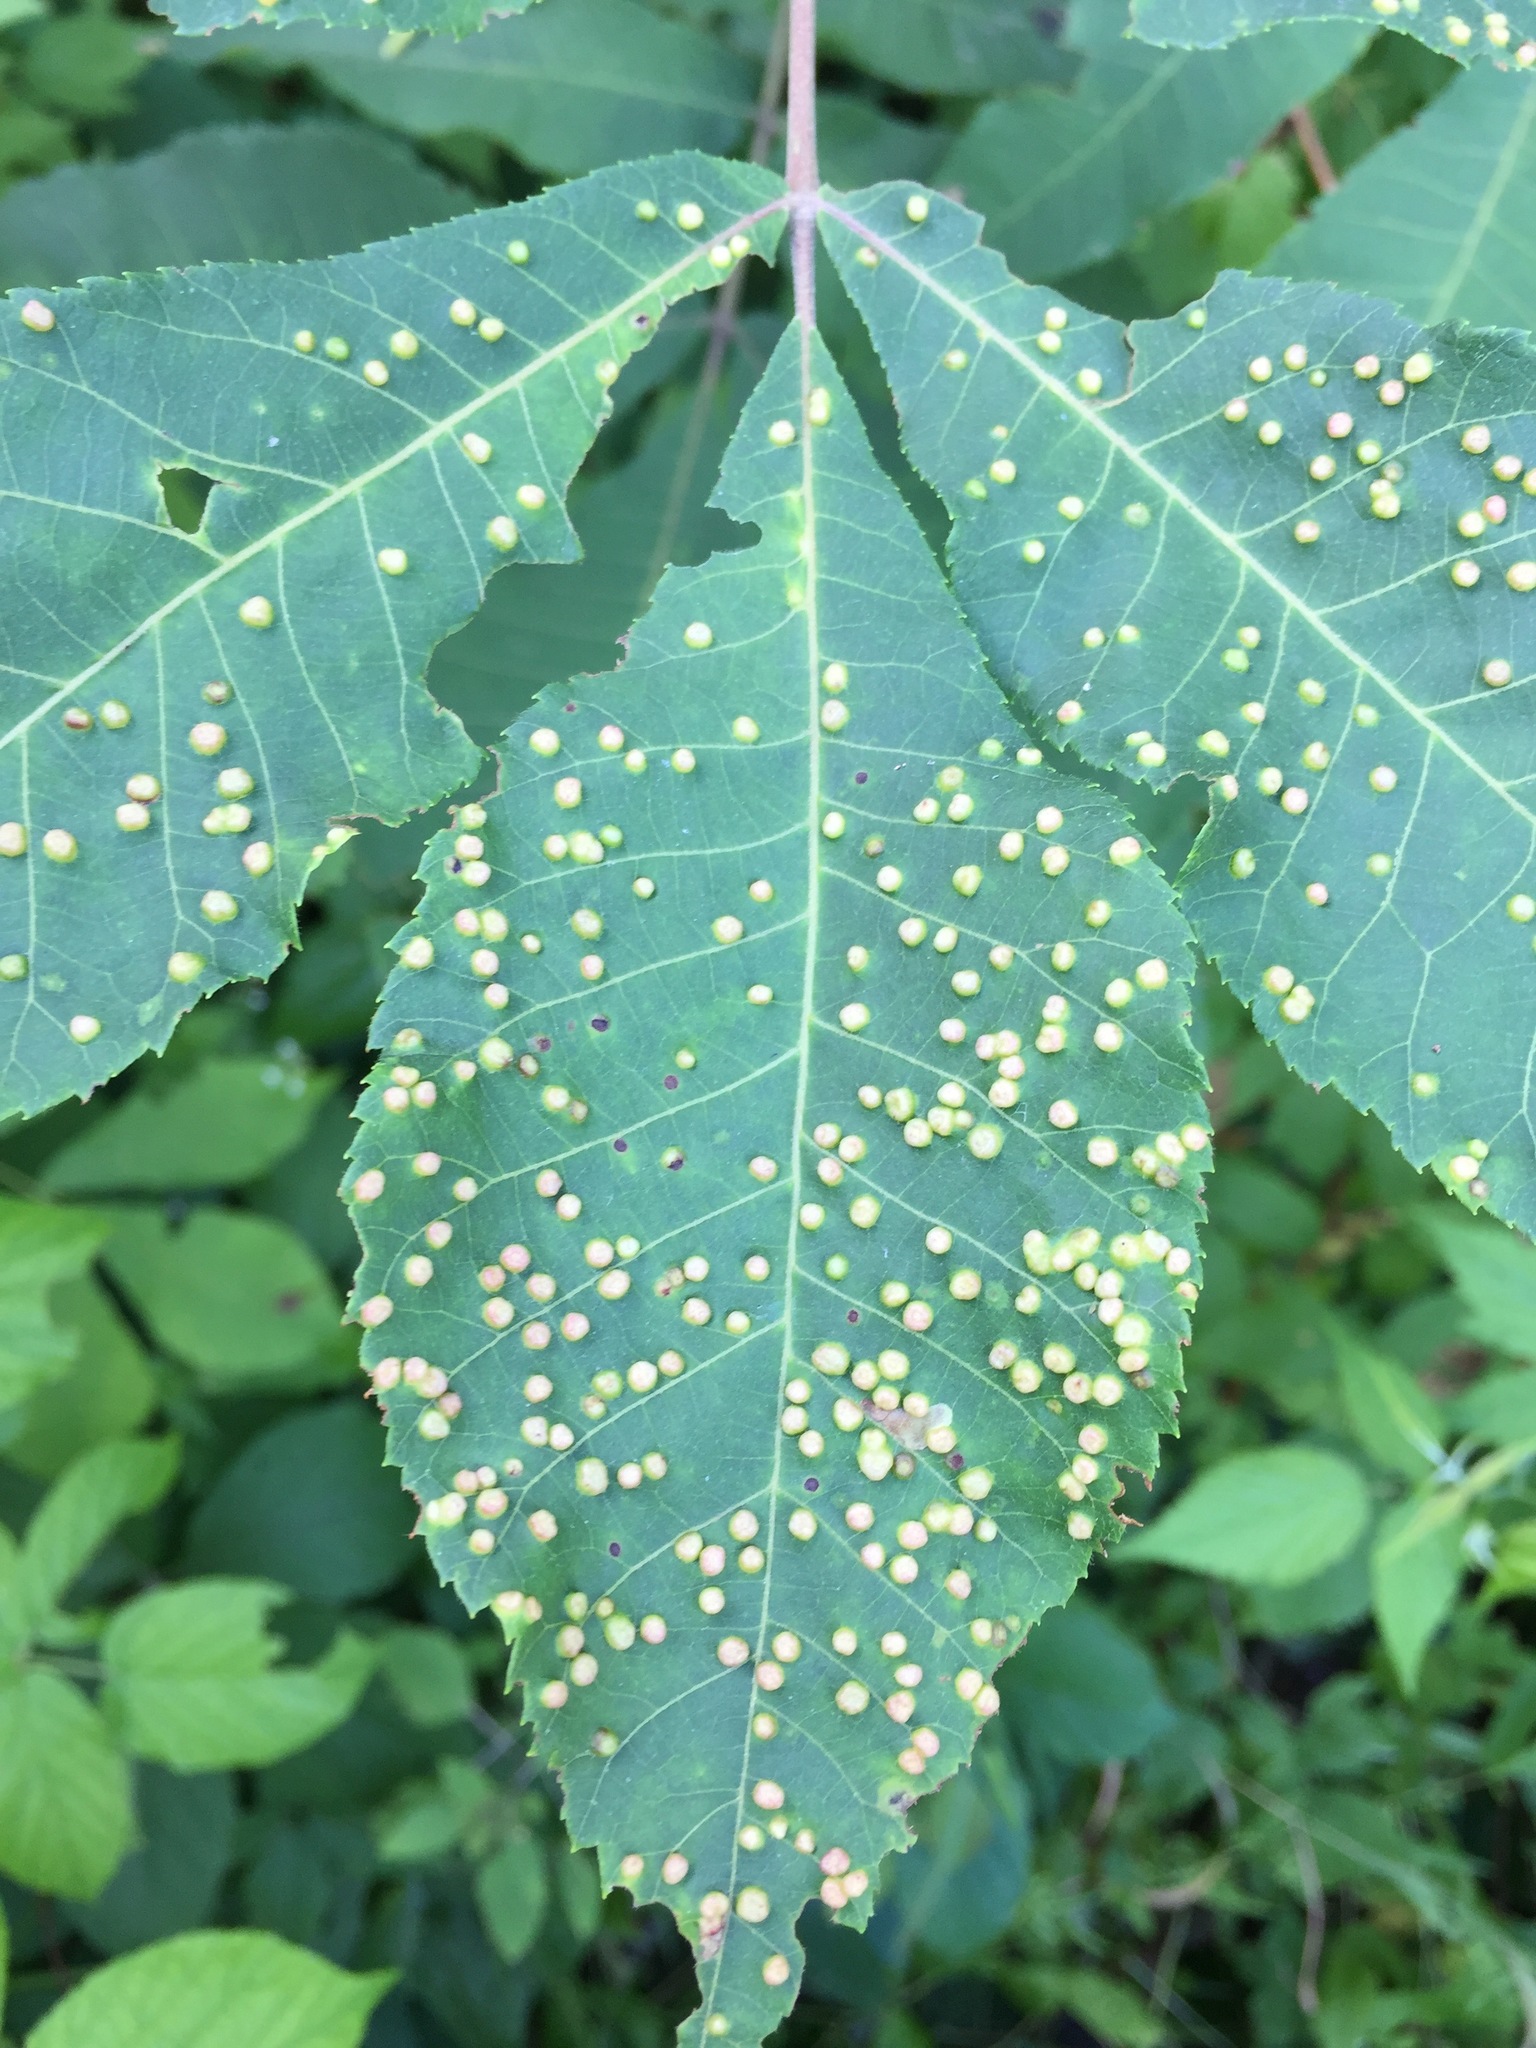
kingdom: Animalia
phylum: Arthropoda
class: Insecta
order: Hemiptera
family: Phylloxeridae
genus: Phylloxera
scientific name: Phylloxera caryae-semen
